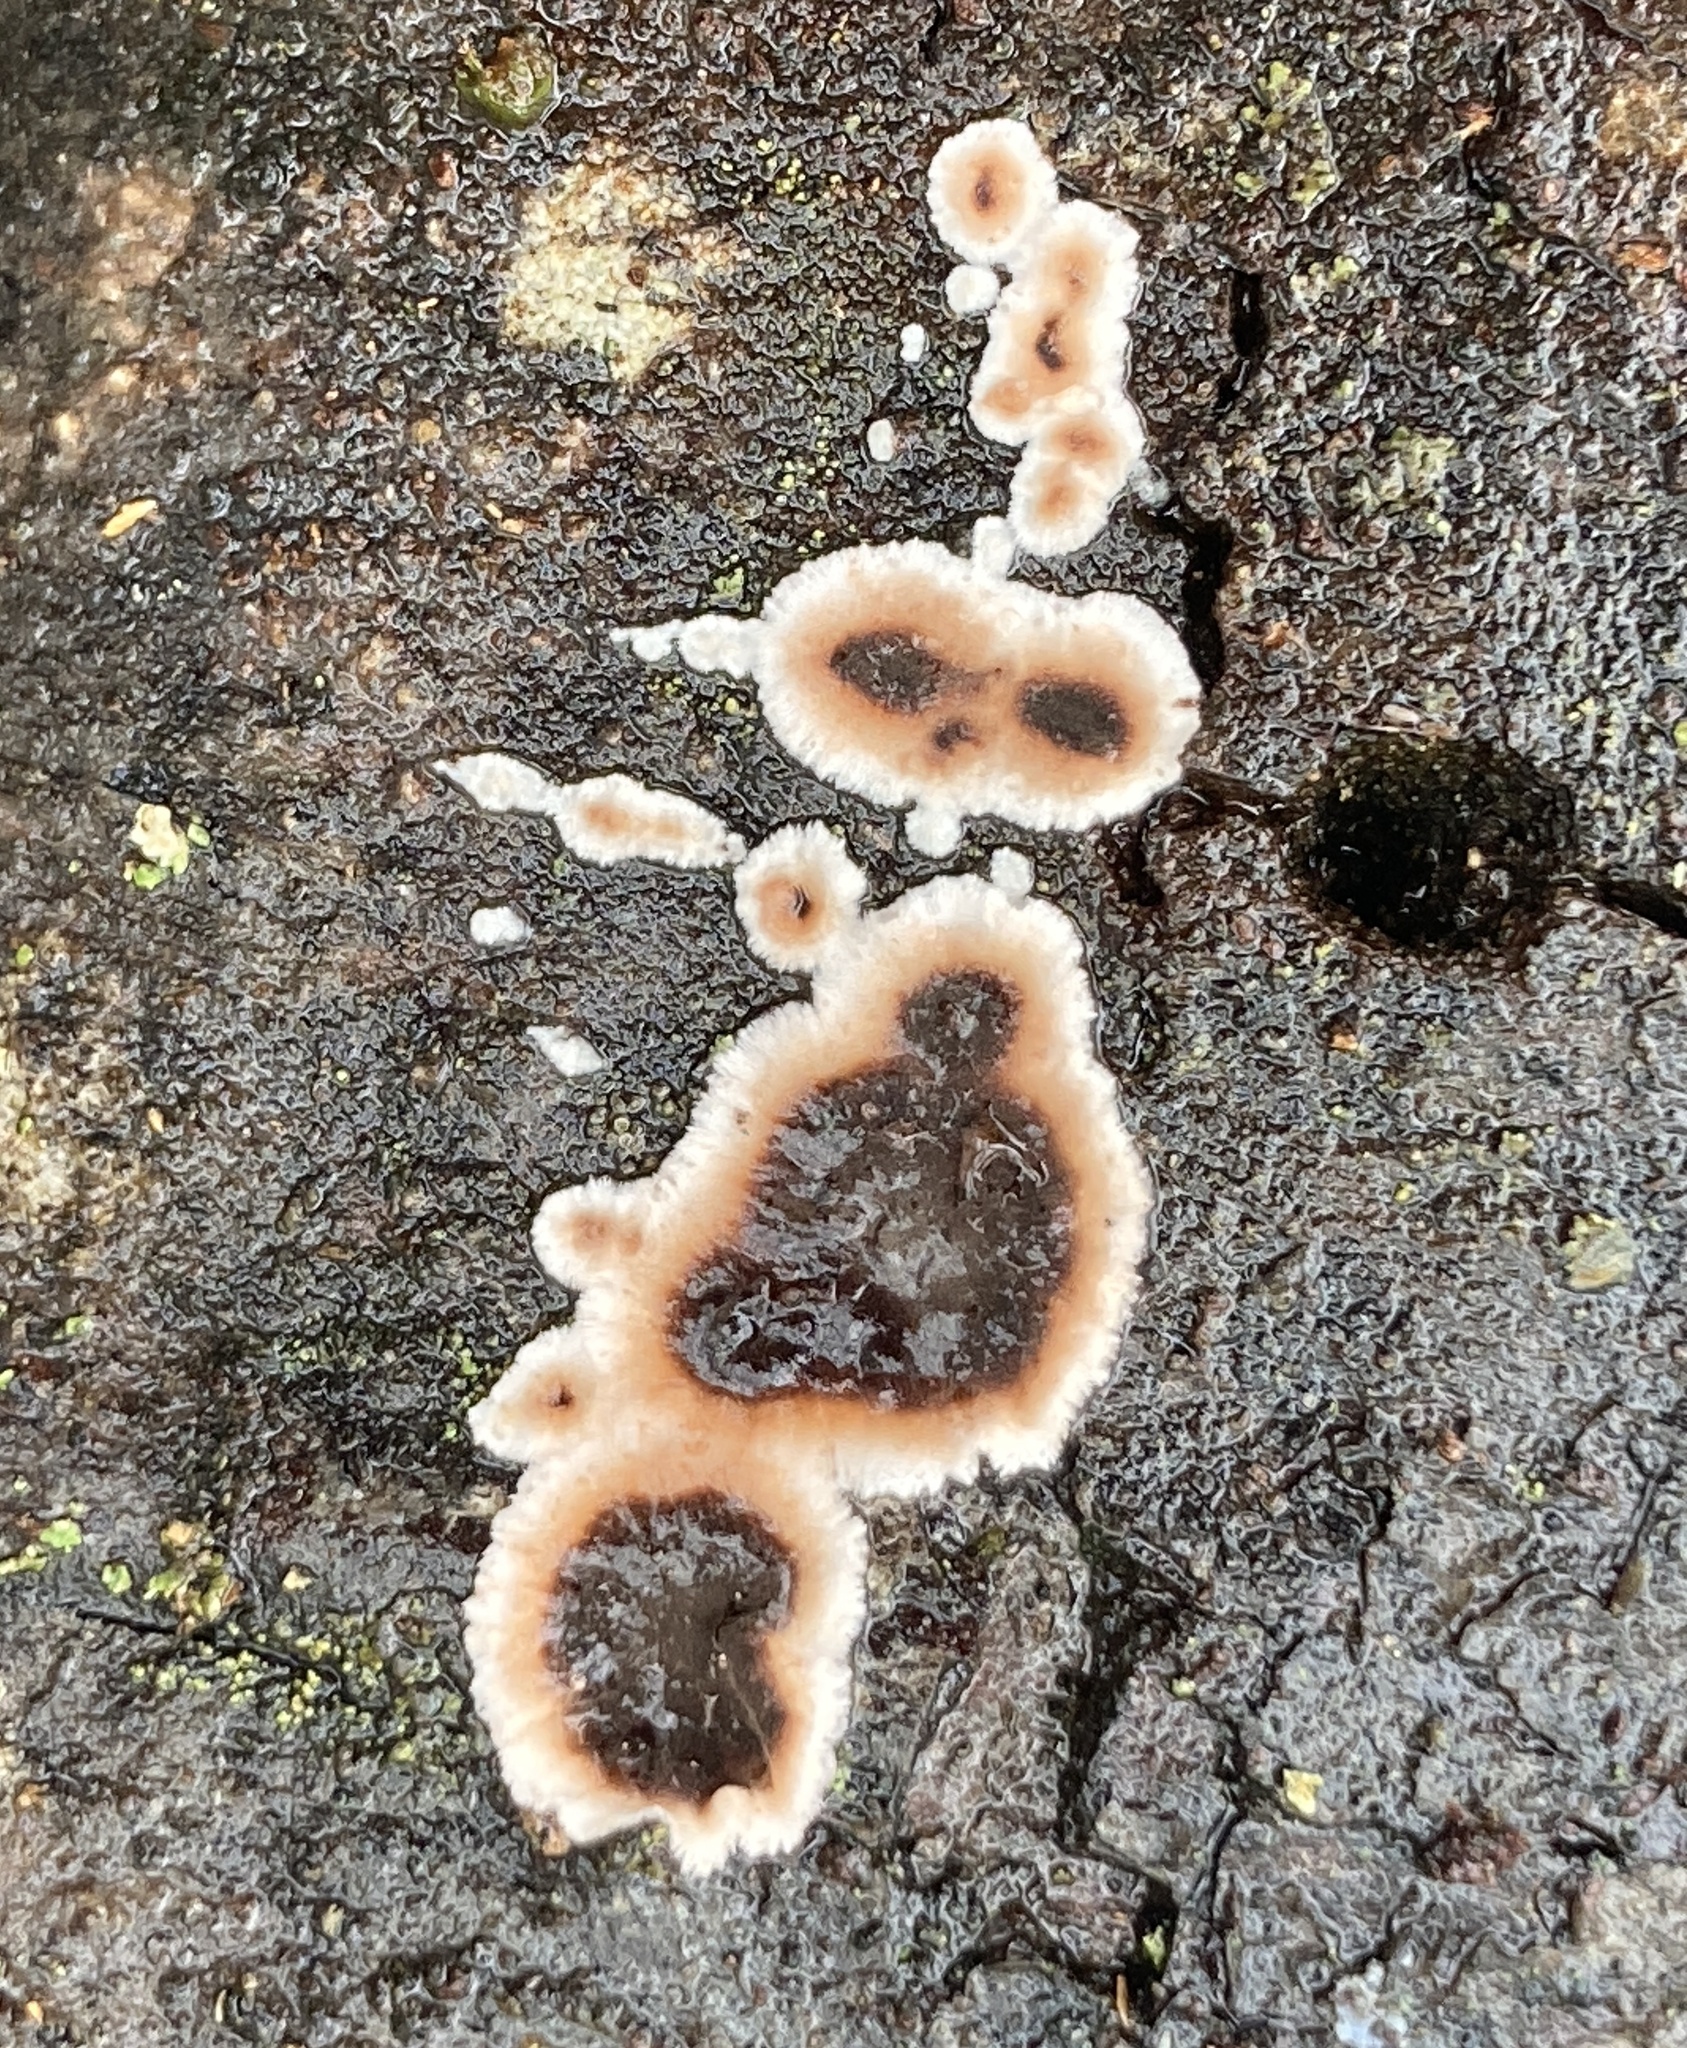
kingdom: Fungi
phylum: Basidiomycota
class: Agaricomycetes
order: Russulales
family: Peniophoraceae
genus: Peniophora
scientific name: Peniophora albobadia
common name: Giraffe spots
